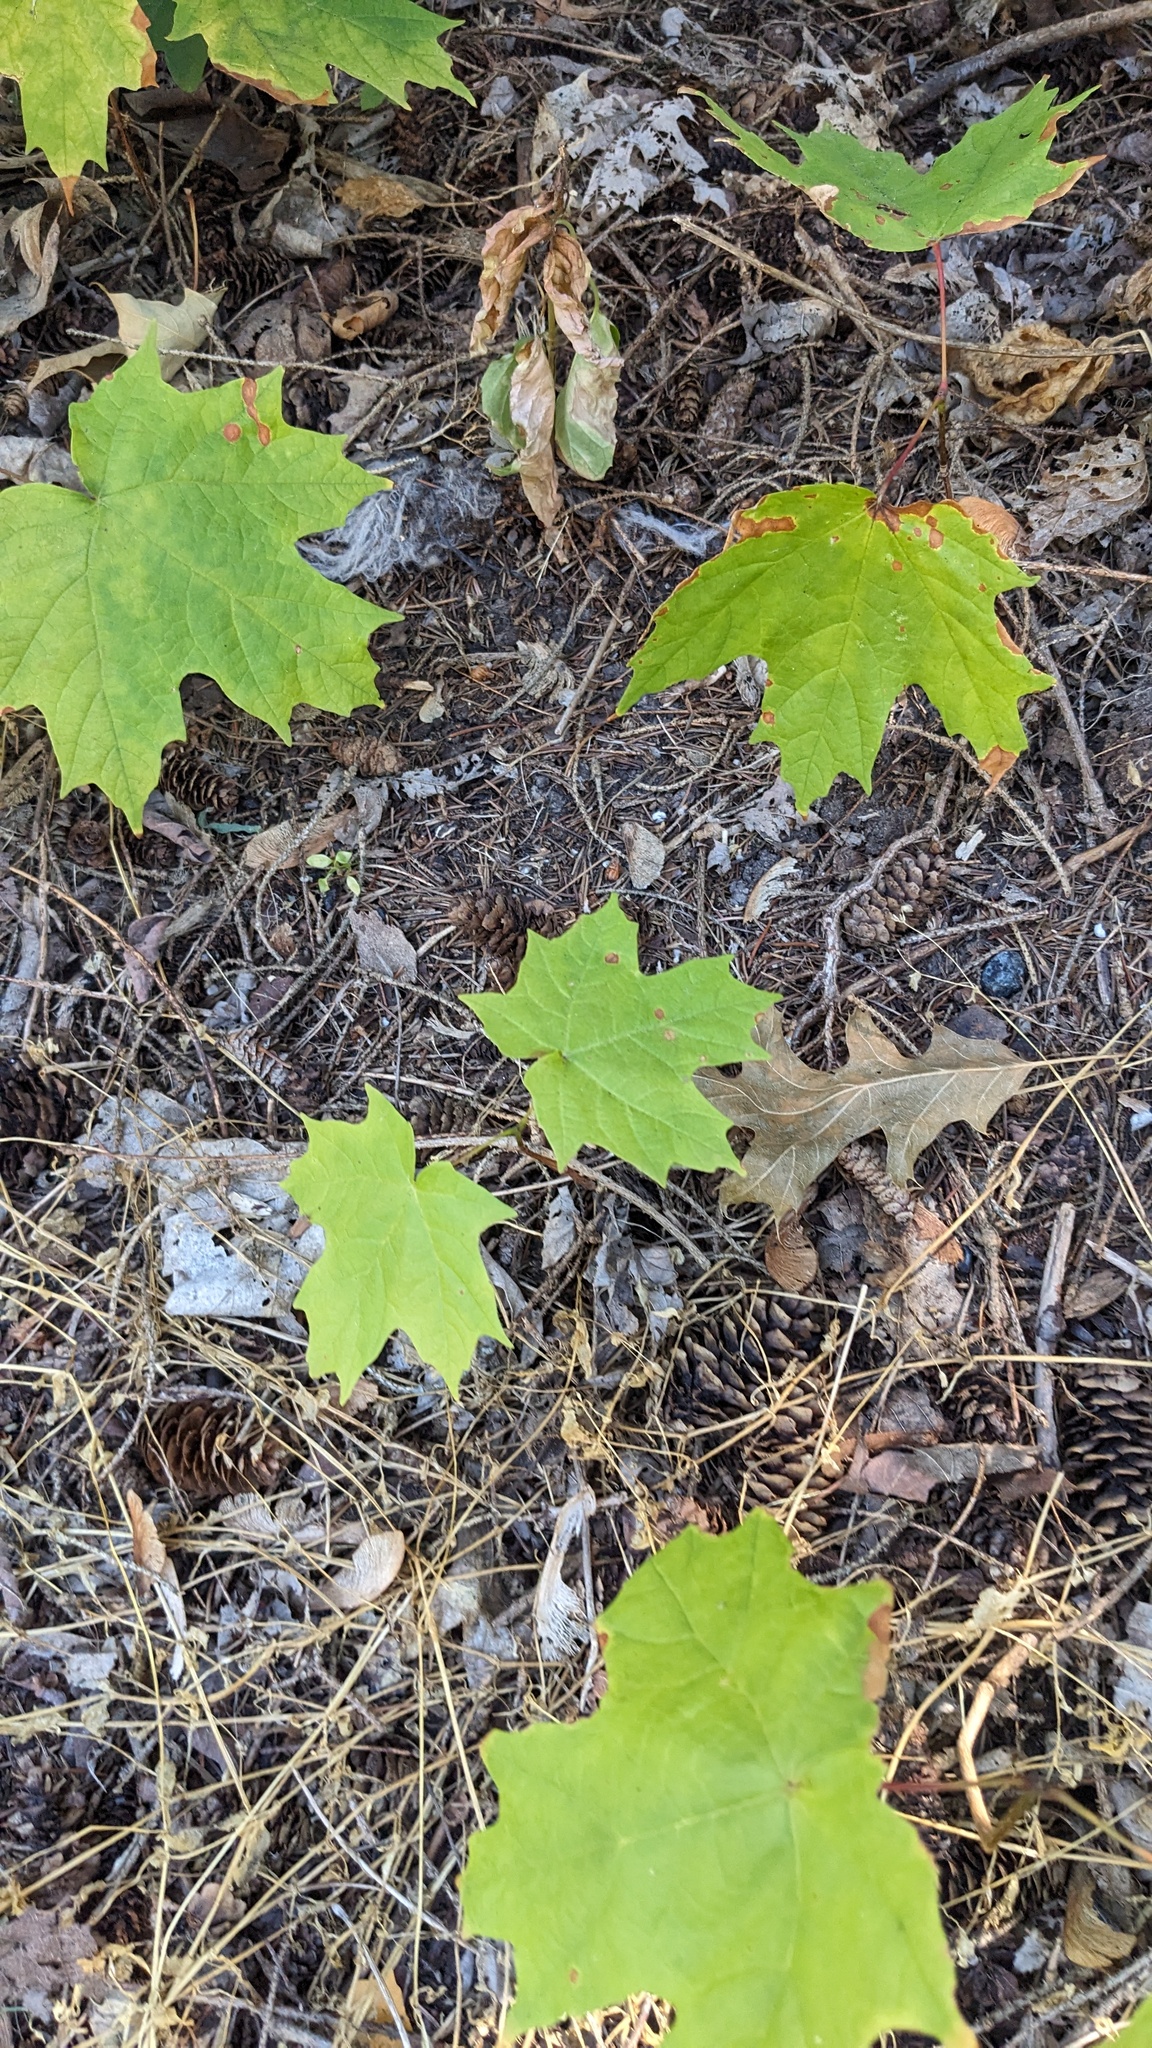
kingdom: Plantae
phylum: Tracheophyta
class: Magnoliopsida
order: Sapindales
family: Sapindaceae
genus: Acer
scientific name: Acer saccharum
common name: Sugar maple
